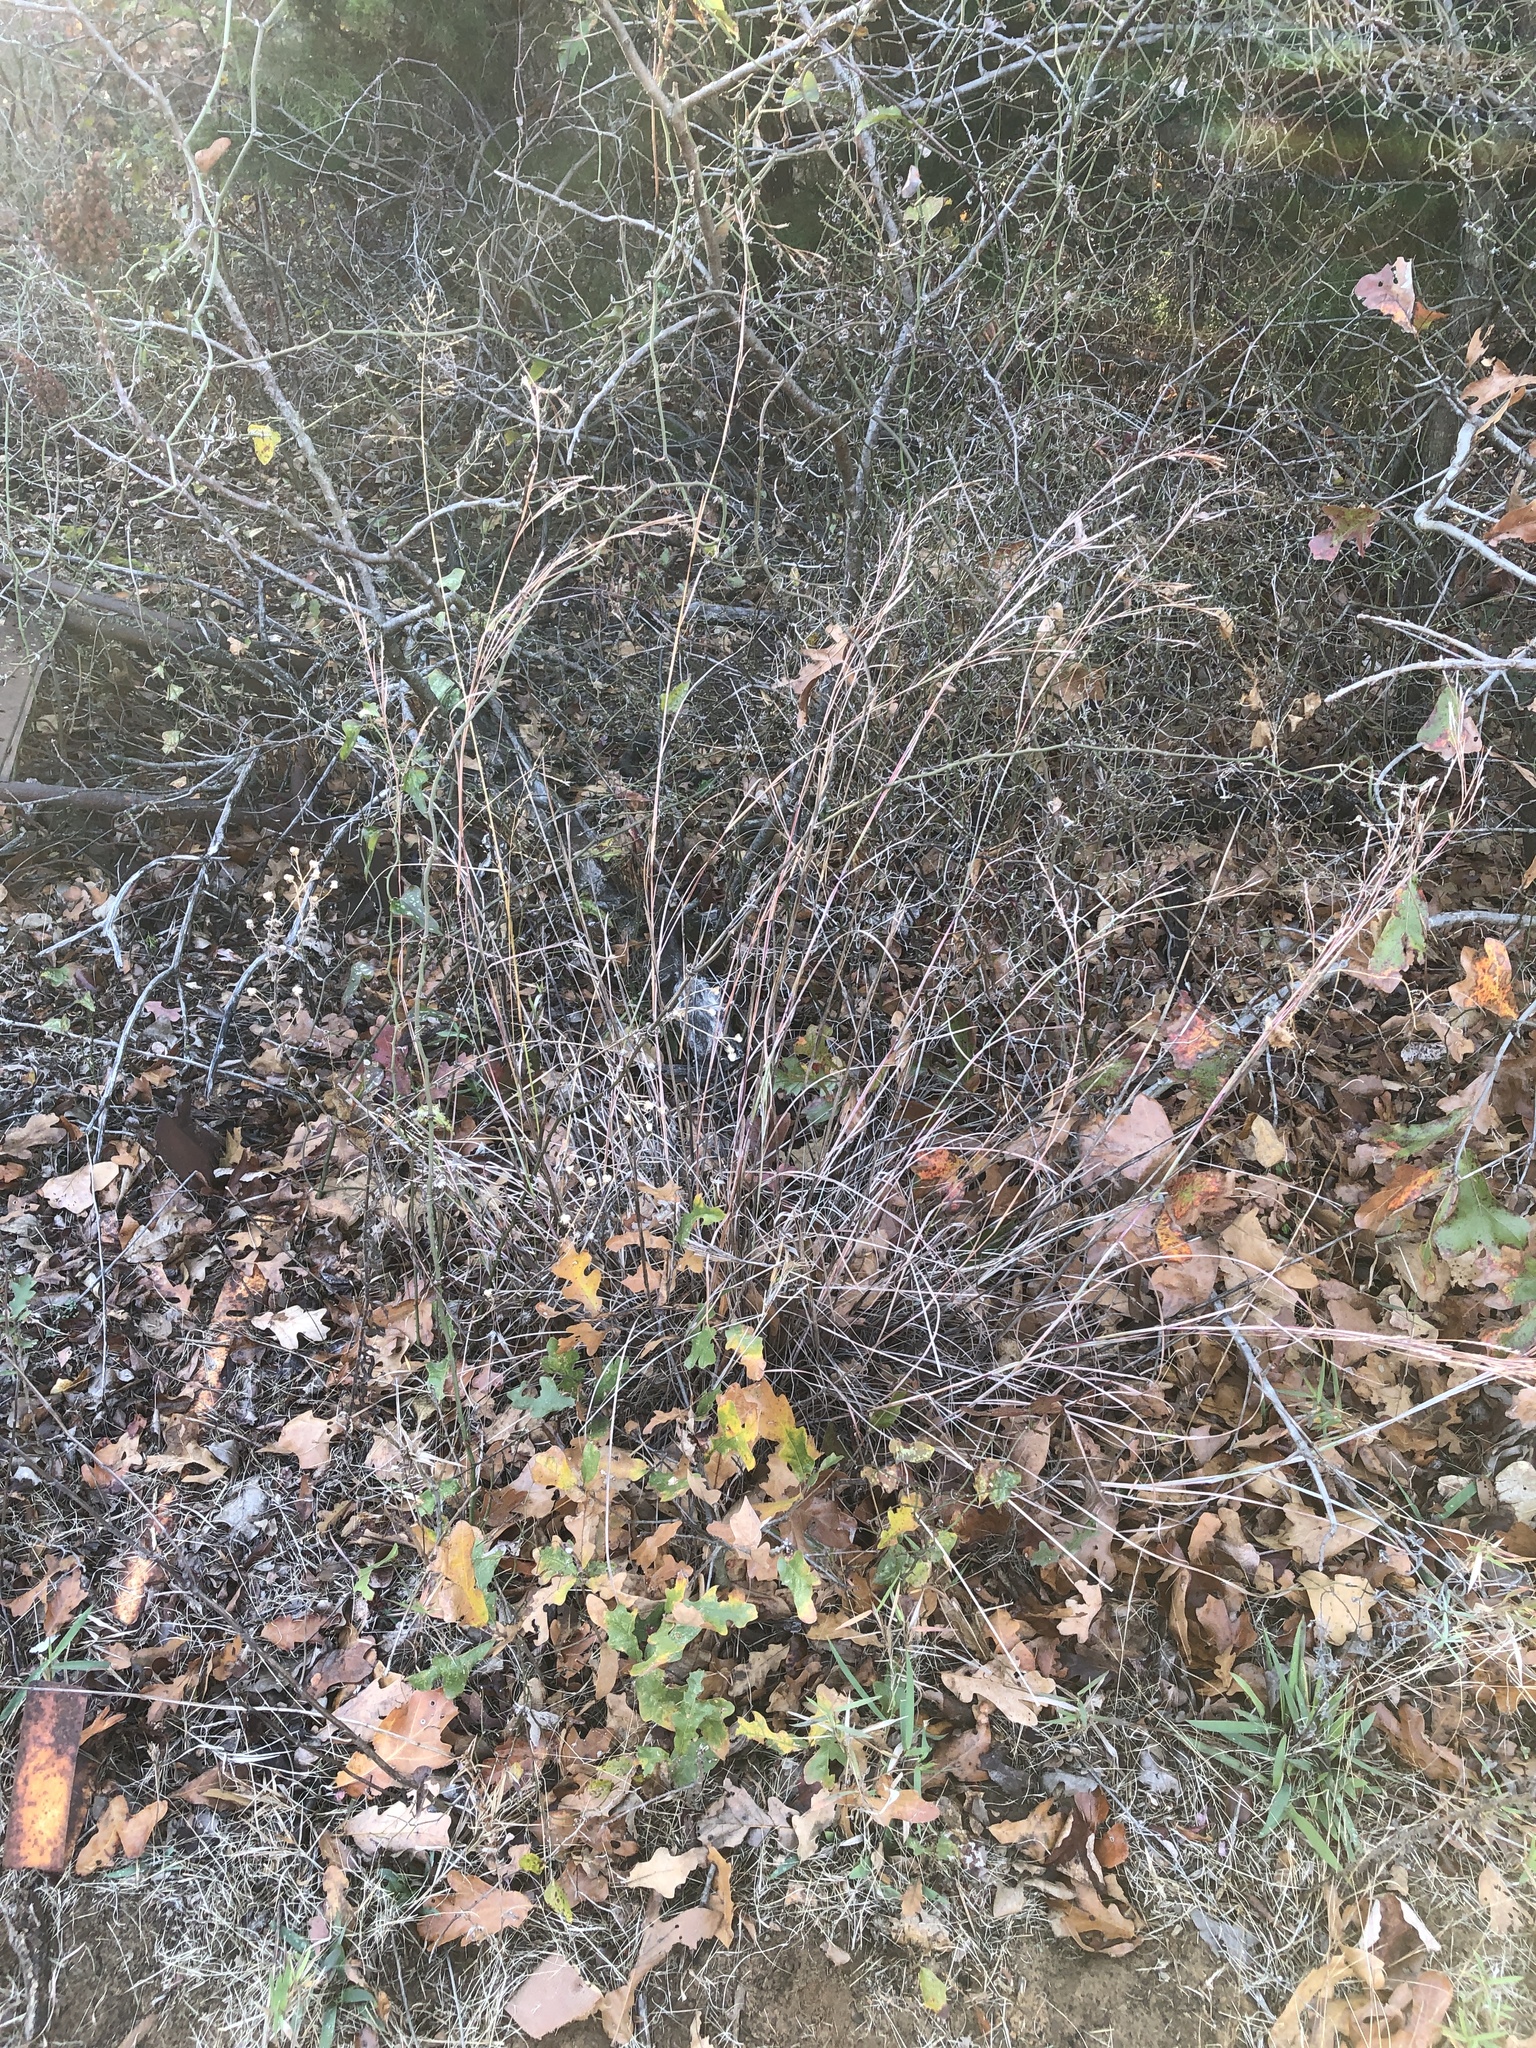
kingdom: Plantae
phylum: Tracheophyta
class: Liliopsida
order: Poales
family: Poaceae
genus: Schizachyrium
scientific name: Schizachyrium scoparium
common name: Little bluestem
